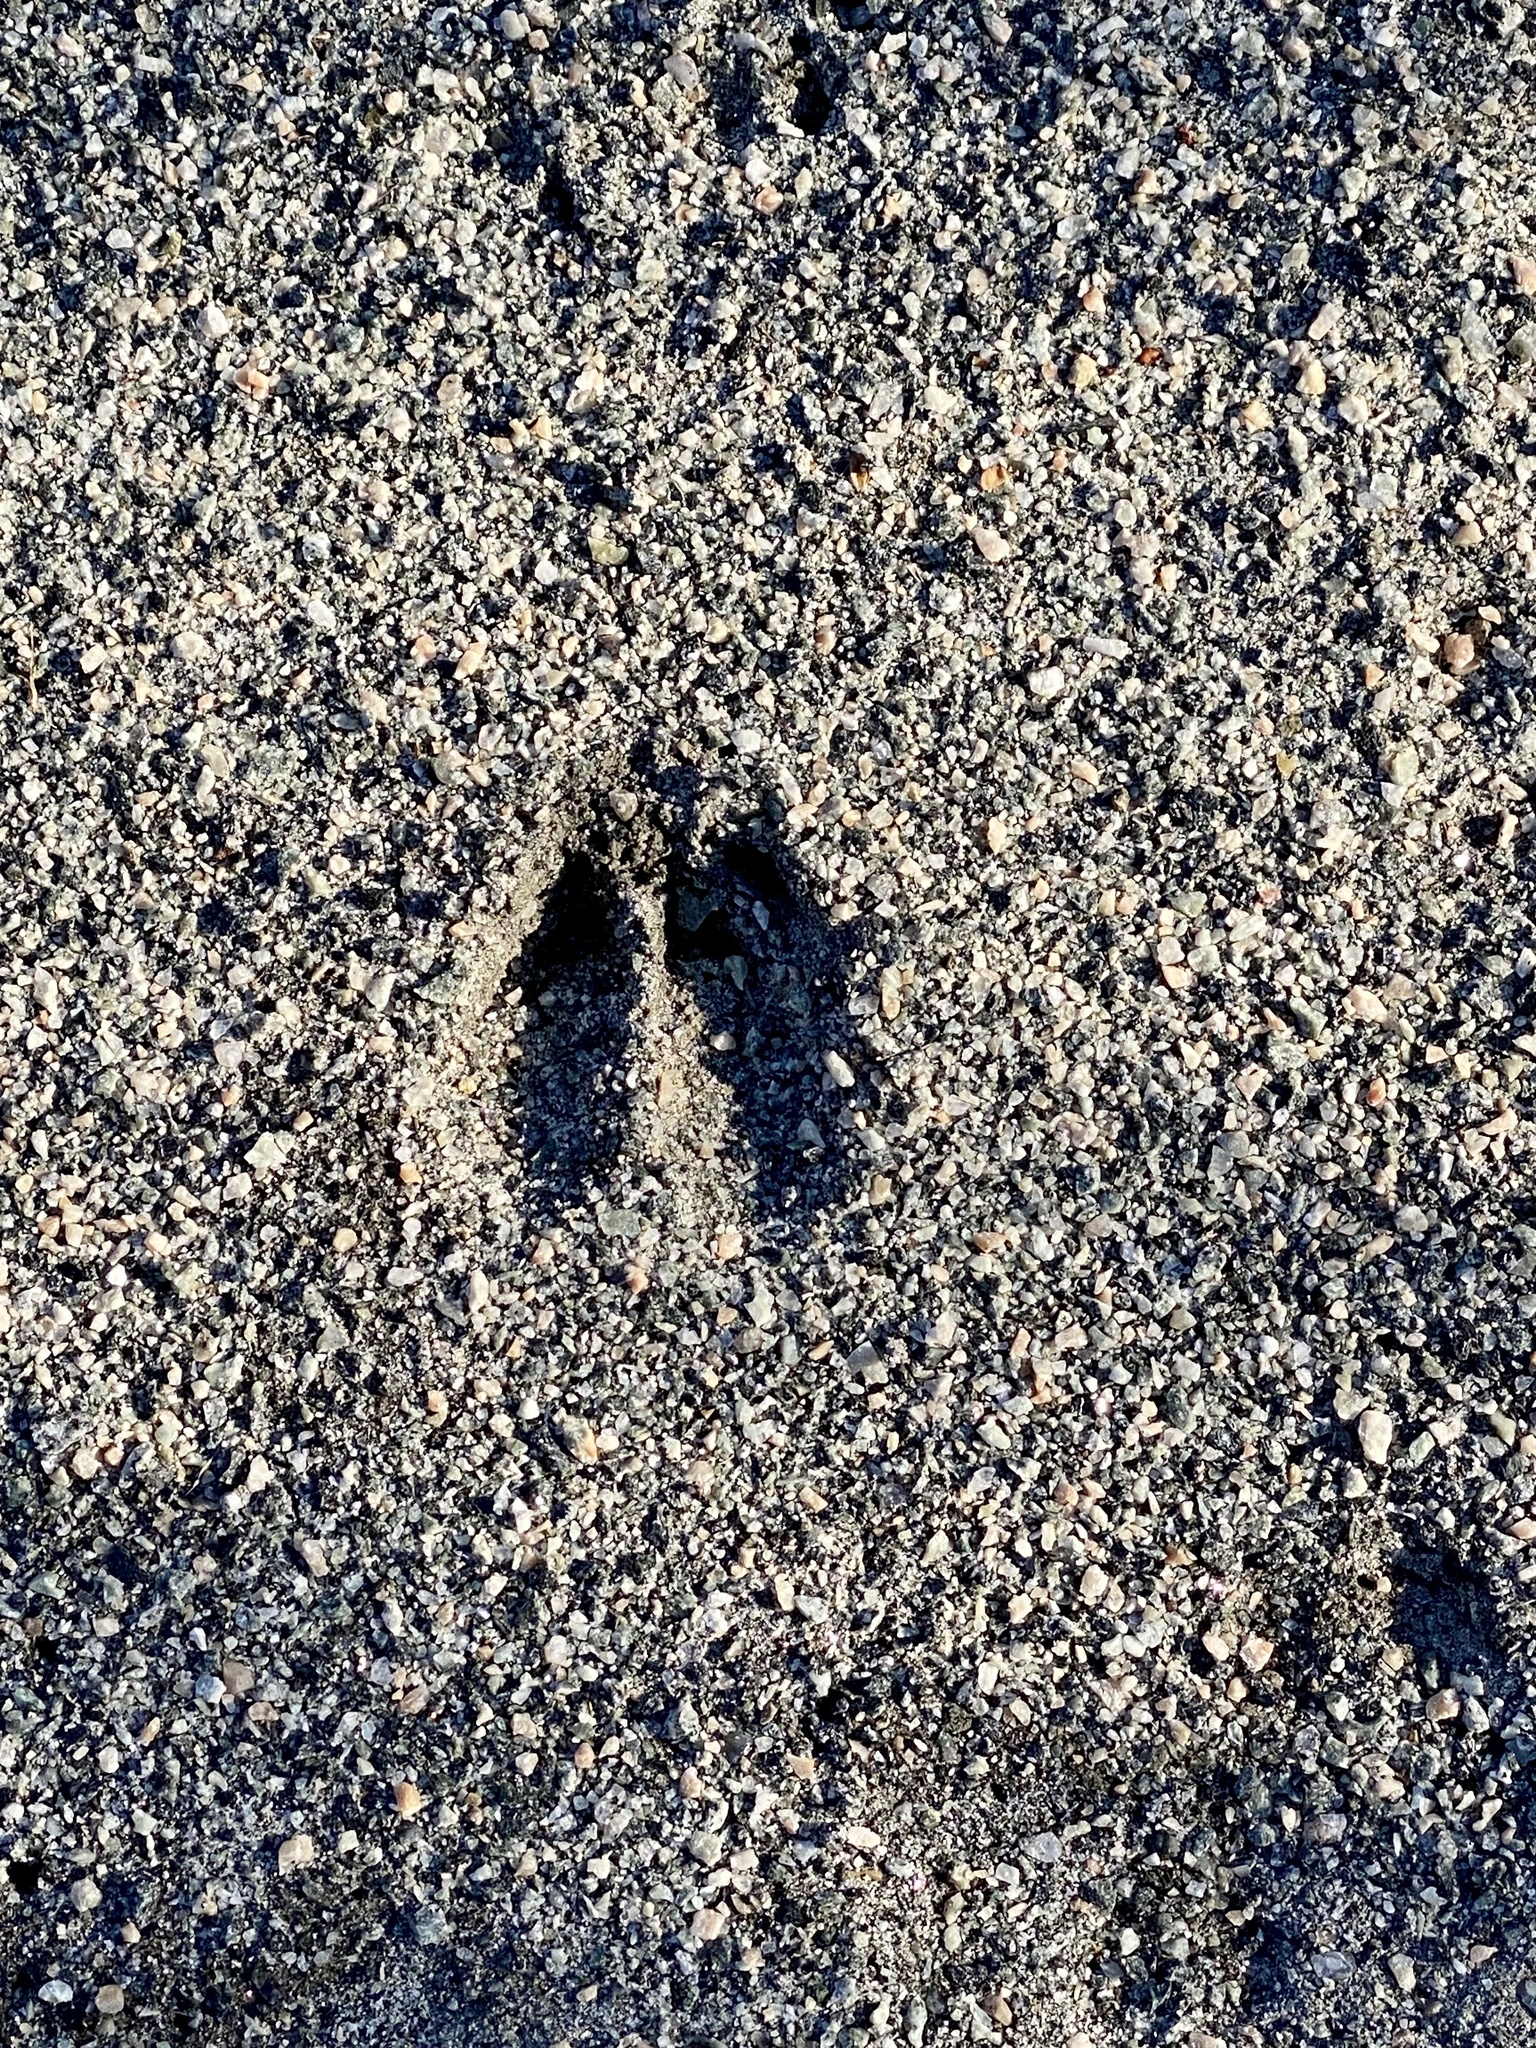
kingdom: Animalia
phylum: Chordata
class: Mammalia
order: Artiodactyla
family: Cervidae
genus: Odocoileus
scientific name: Odocoileus virginianus
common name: White-tailed deer
